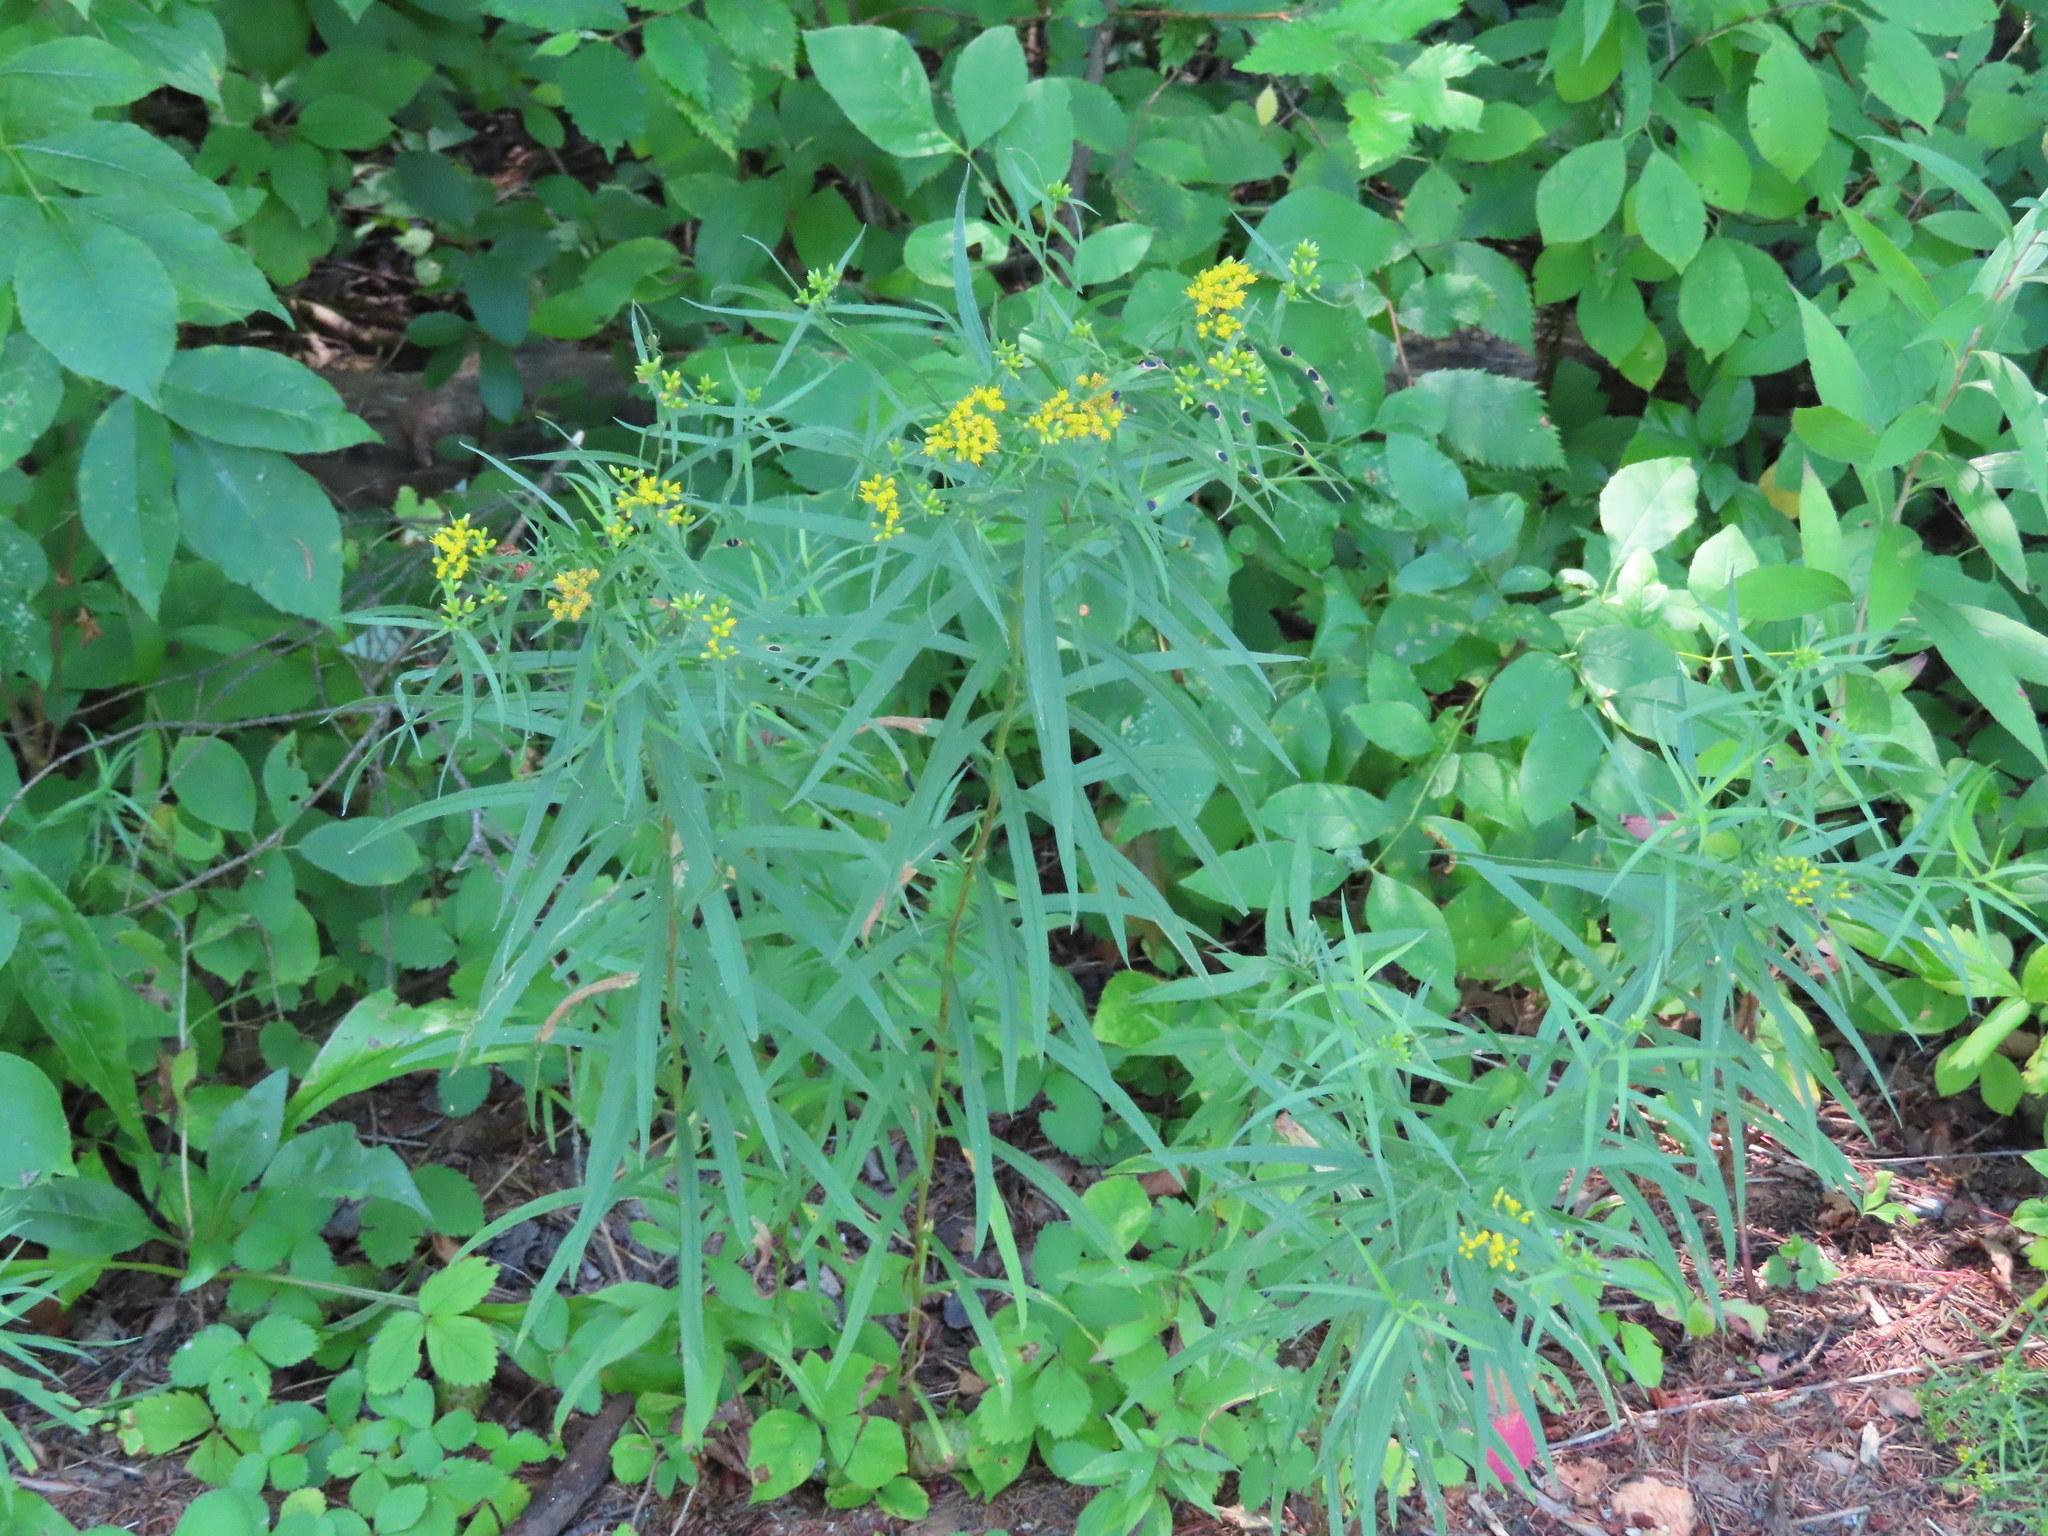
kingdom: Plantae
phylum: Tracheophyta
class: Magnoliopsida
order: Asterales
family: Asteraceae
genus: Euthamia
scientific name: Euthamia graminifolia
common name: Common goldentop
